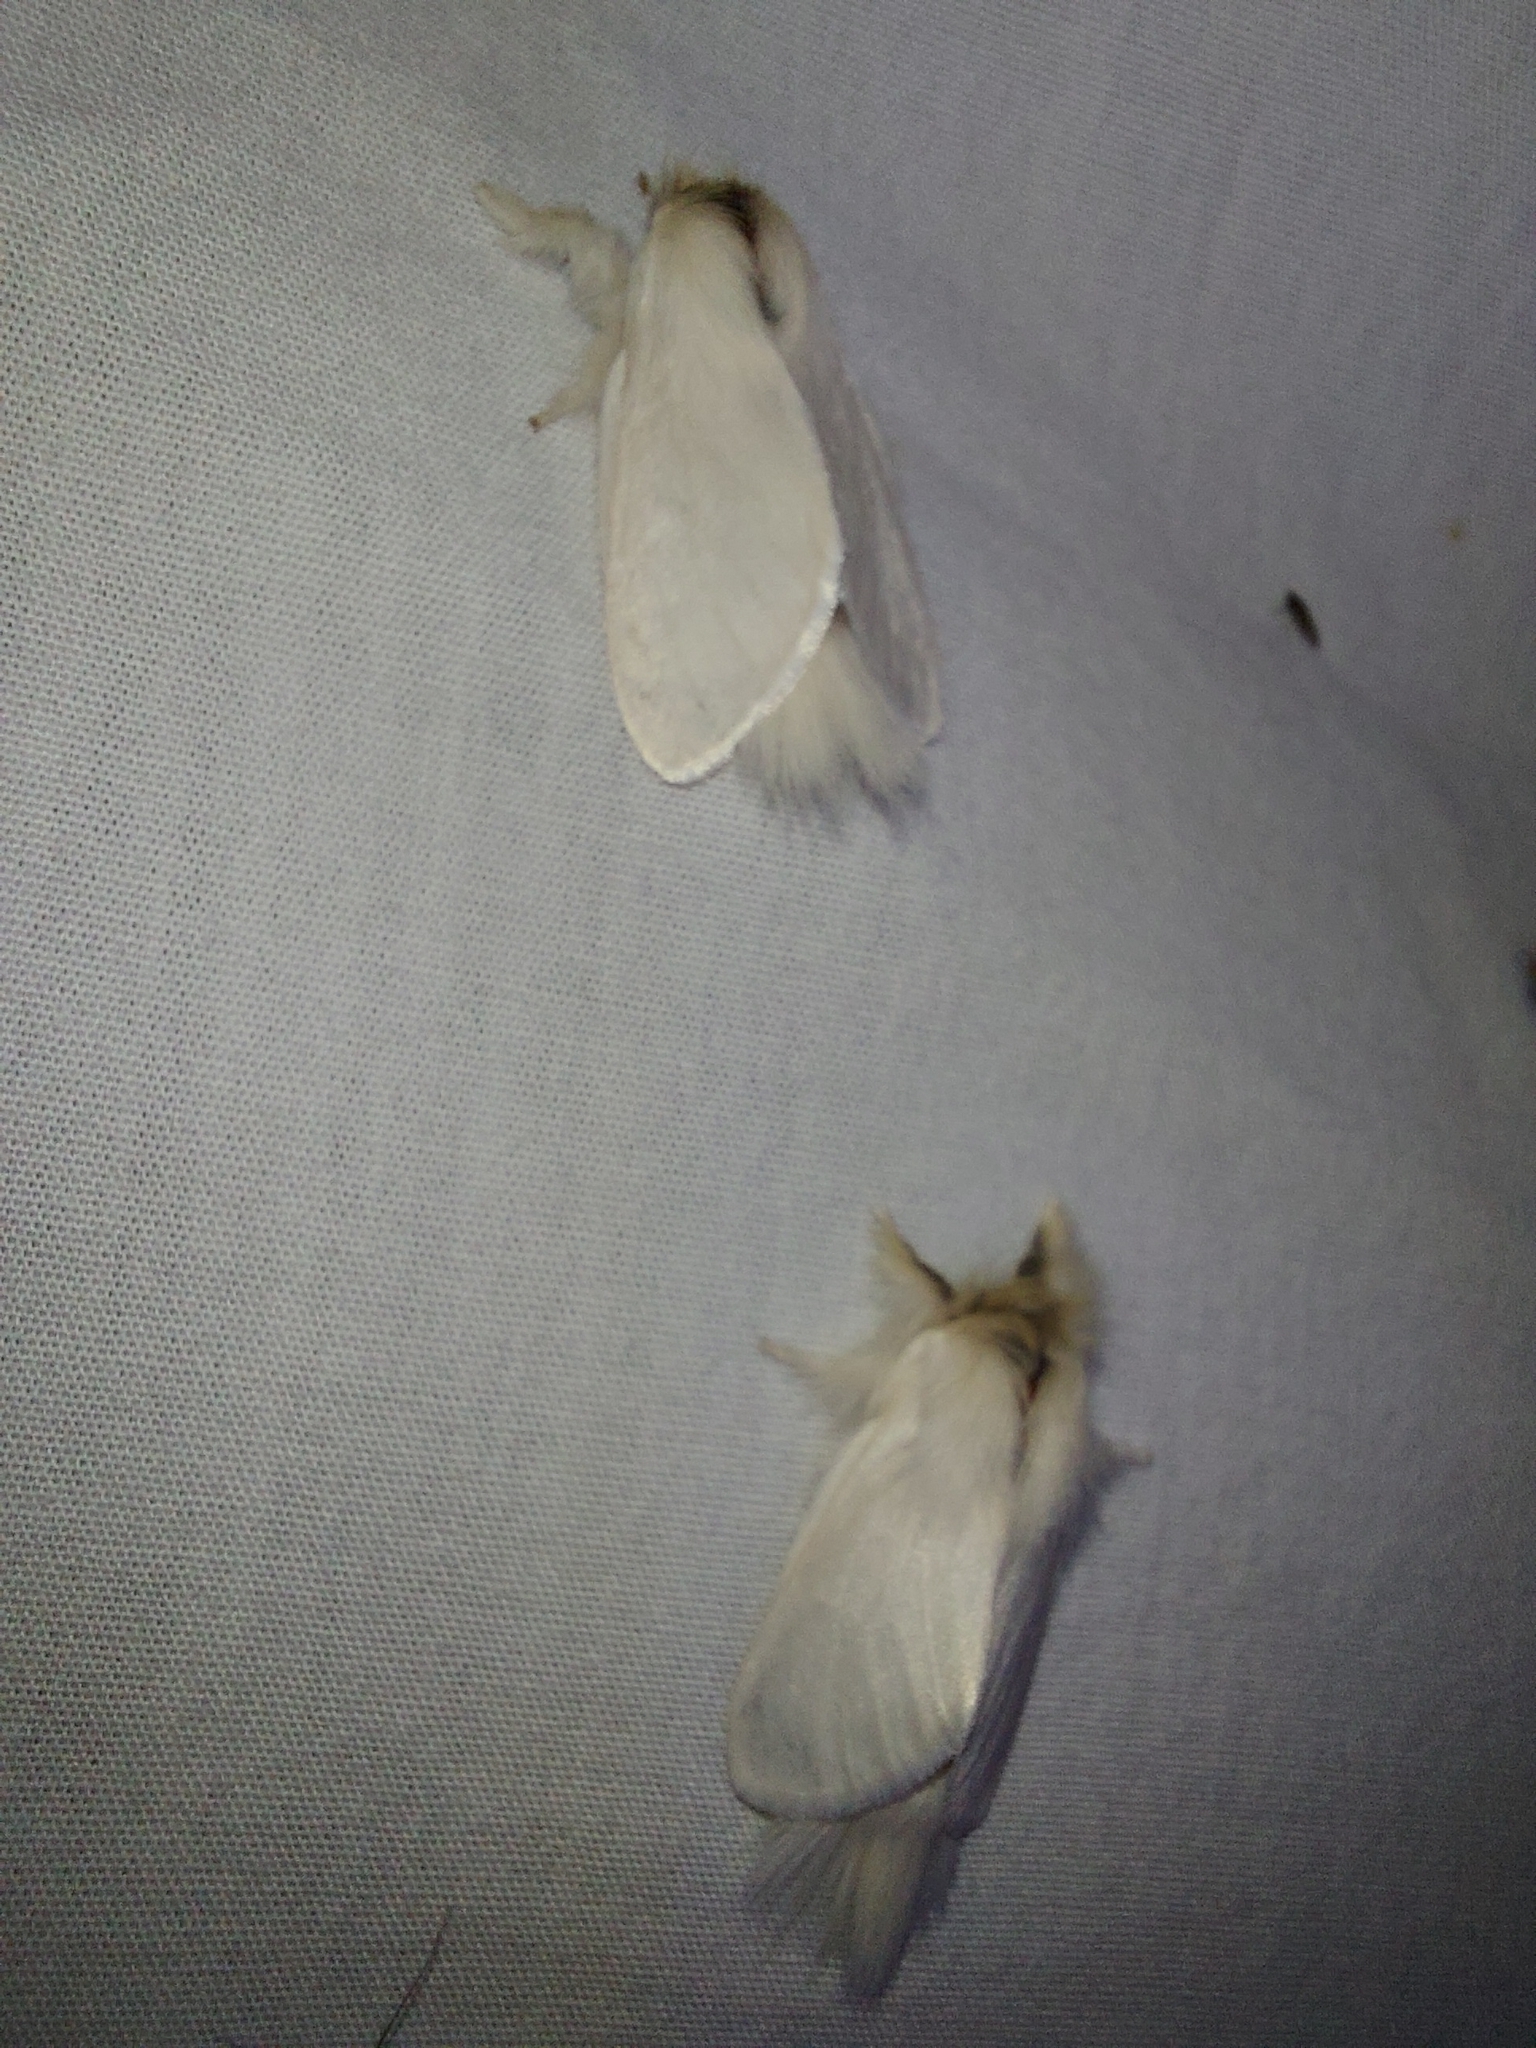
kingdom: Animalia
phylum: Arthropoda
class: Insecta
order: Lepidoptera
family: Notodontidae
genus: Trichiocercus
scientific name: Trichiocercus sparshalli
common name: Long-tailed satin
